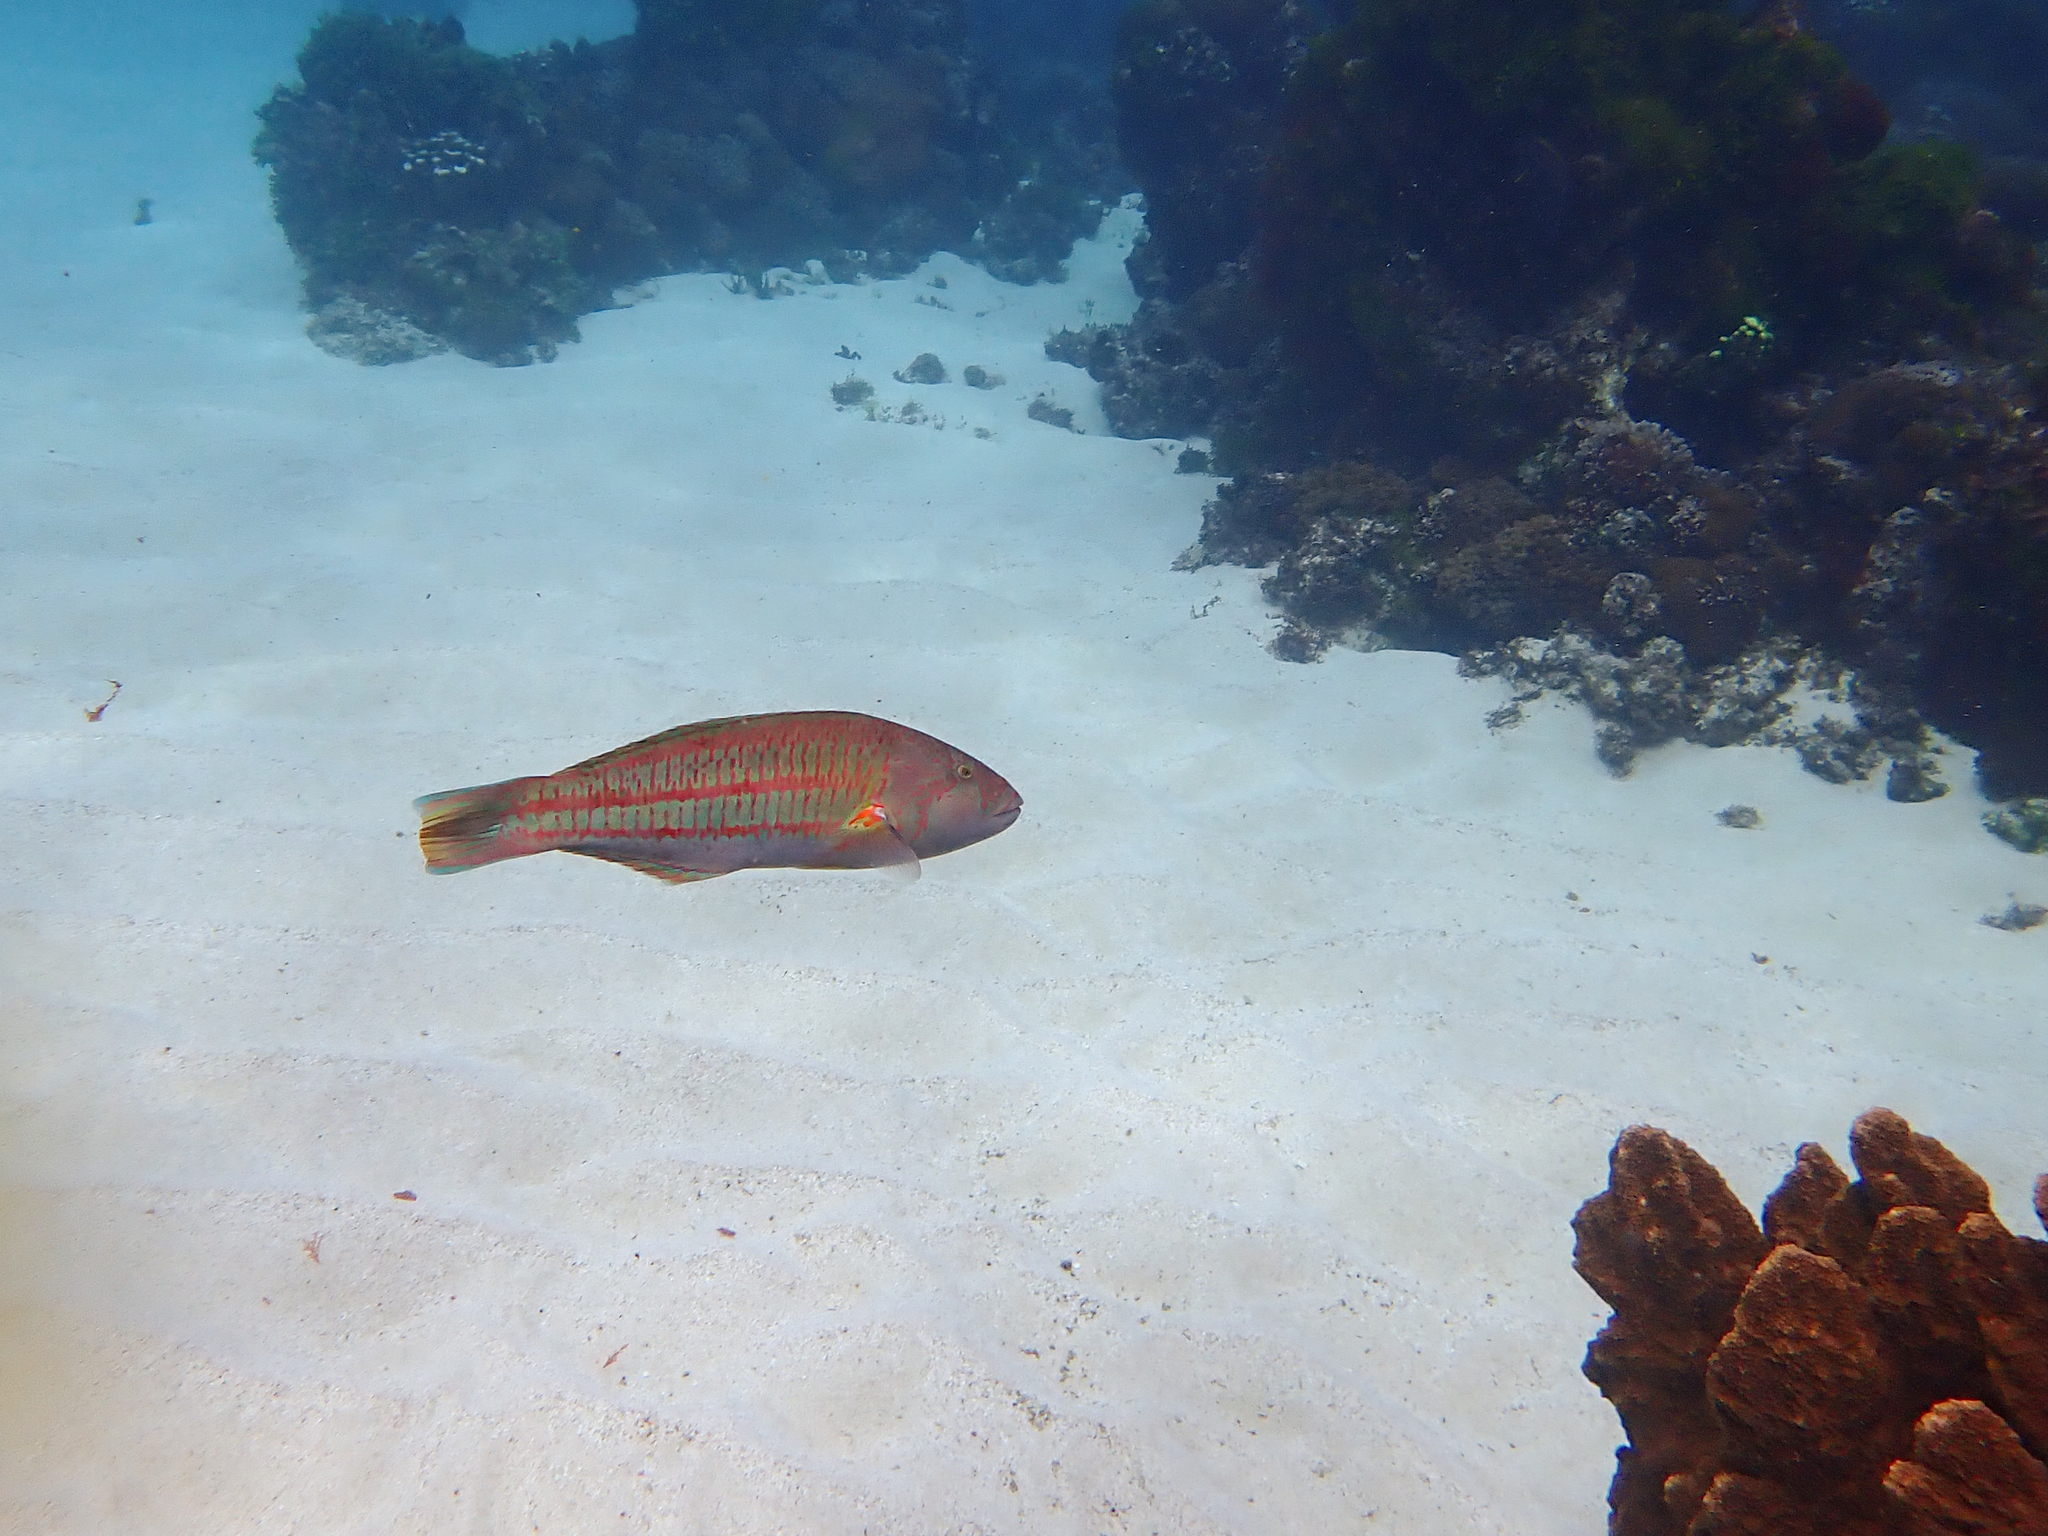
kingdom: Animalia
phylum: Chordata
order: Perciformes
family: Labridae
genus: Thalassoma
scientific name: Thalassoma purpureum
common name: Parrotfish
